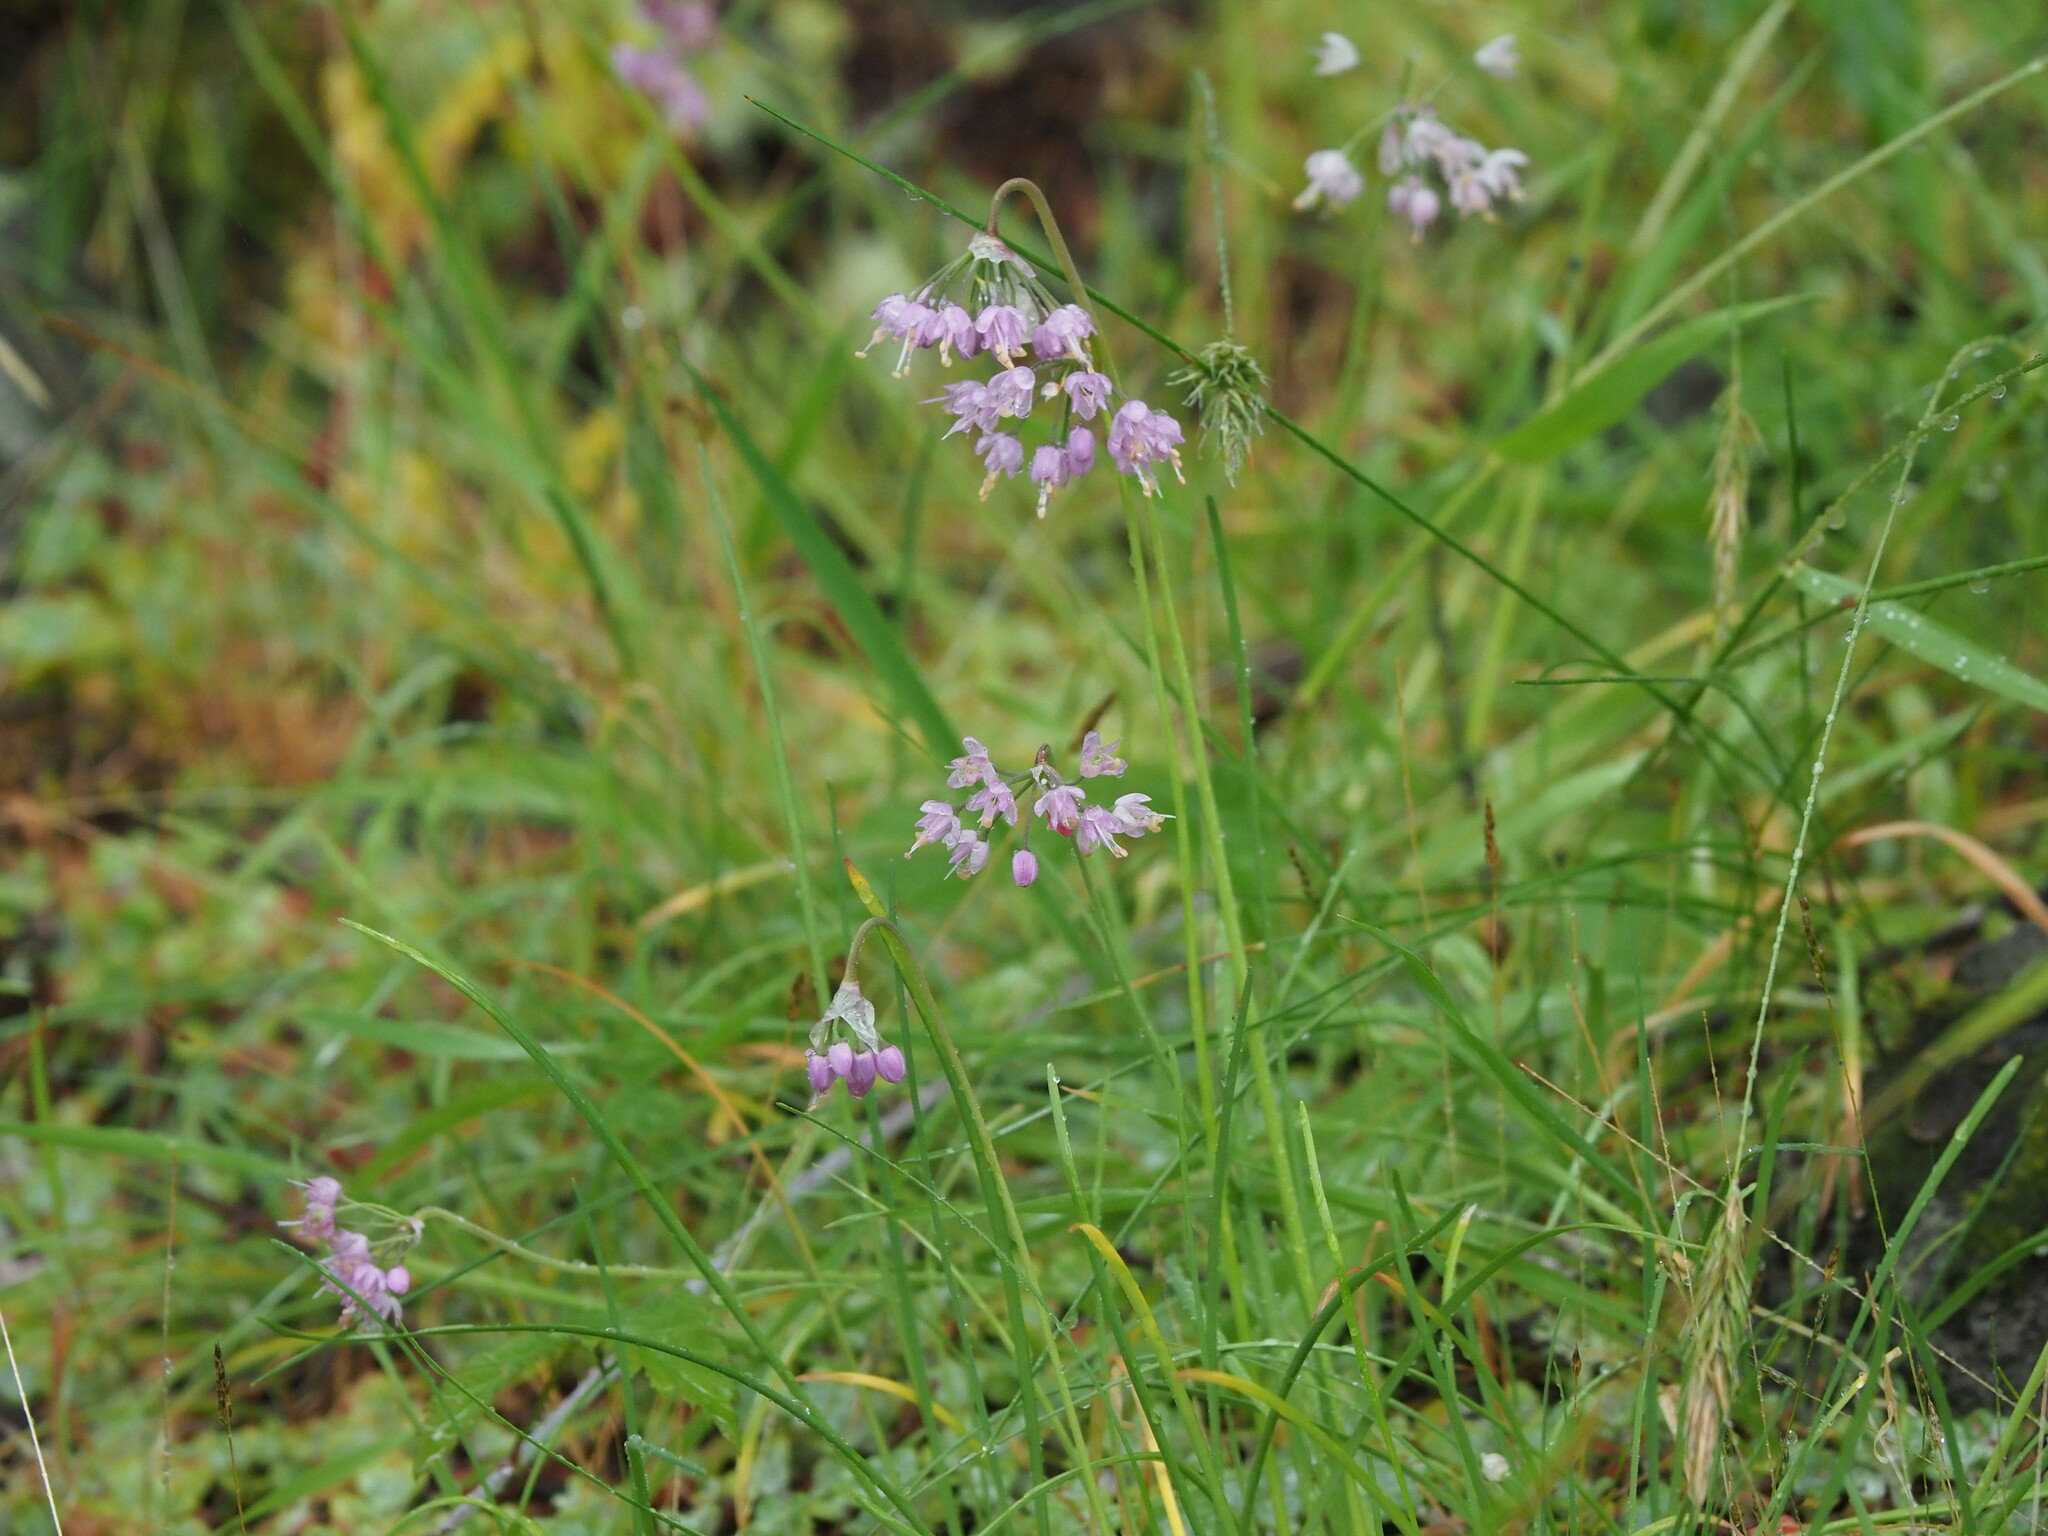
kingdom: Plantae
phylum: Tracheophyta
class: Liliopsida
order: Asparagales
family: Amaryllidaceae
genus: Allium
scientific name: Allium cernuum
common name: Nodding onion
